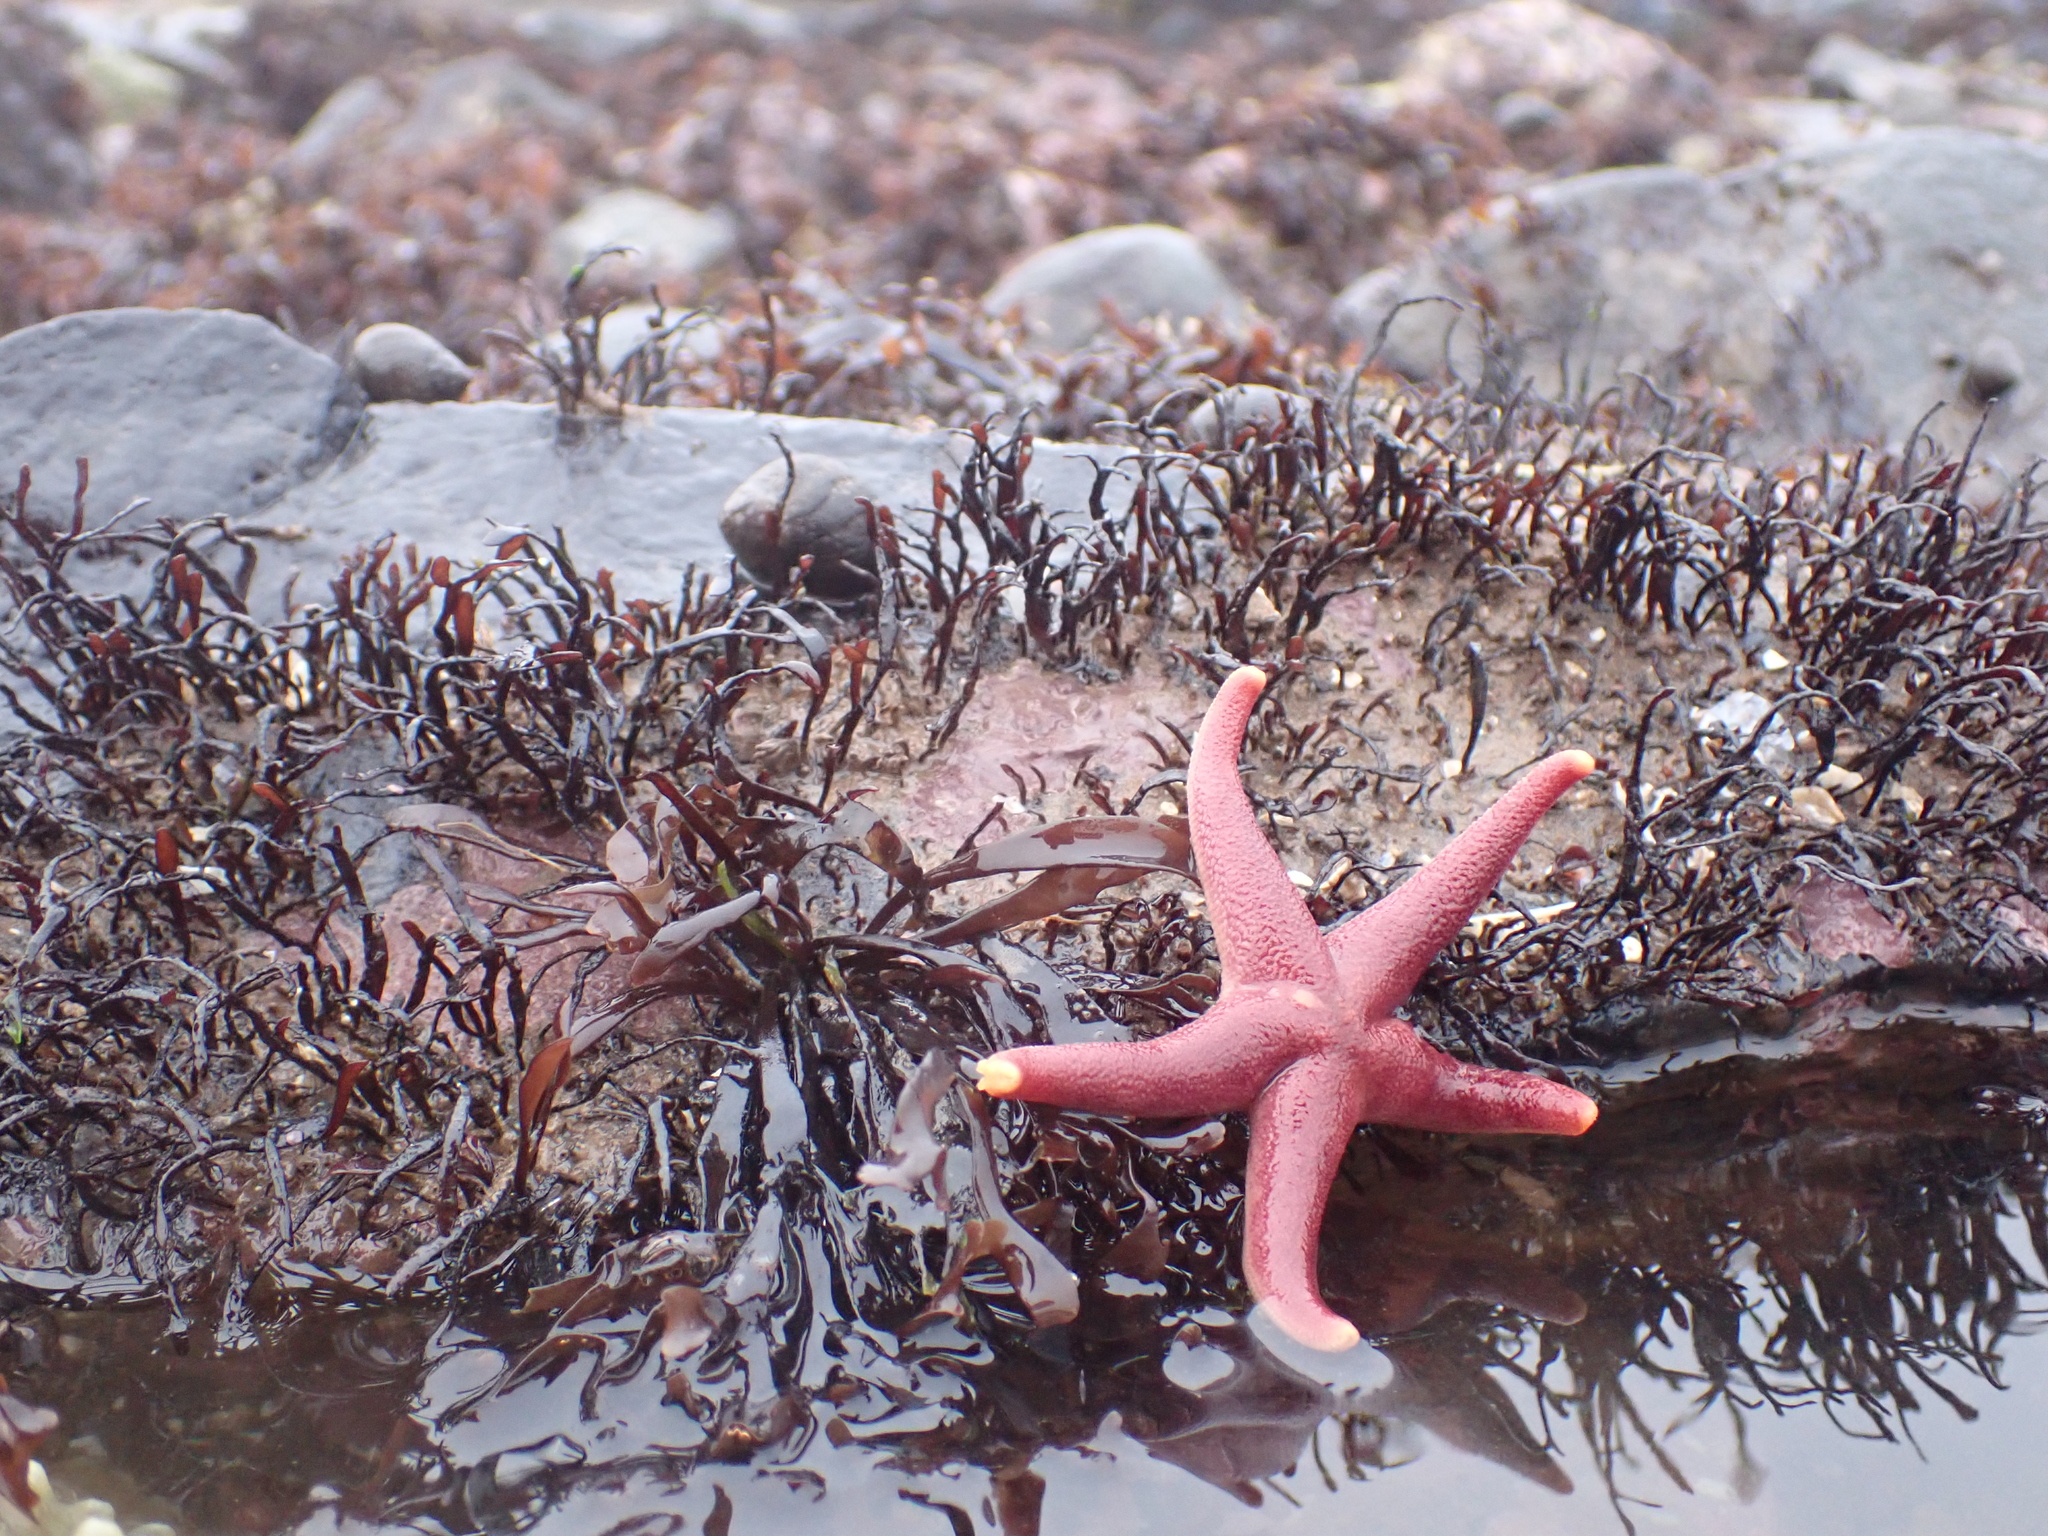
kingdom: Animalia
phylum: Echinodermata
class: Asteroidea
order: Spinulosida
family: Echinasteridae
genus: Henricia
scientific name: Henricia sanguinolenta
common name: Blood star
